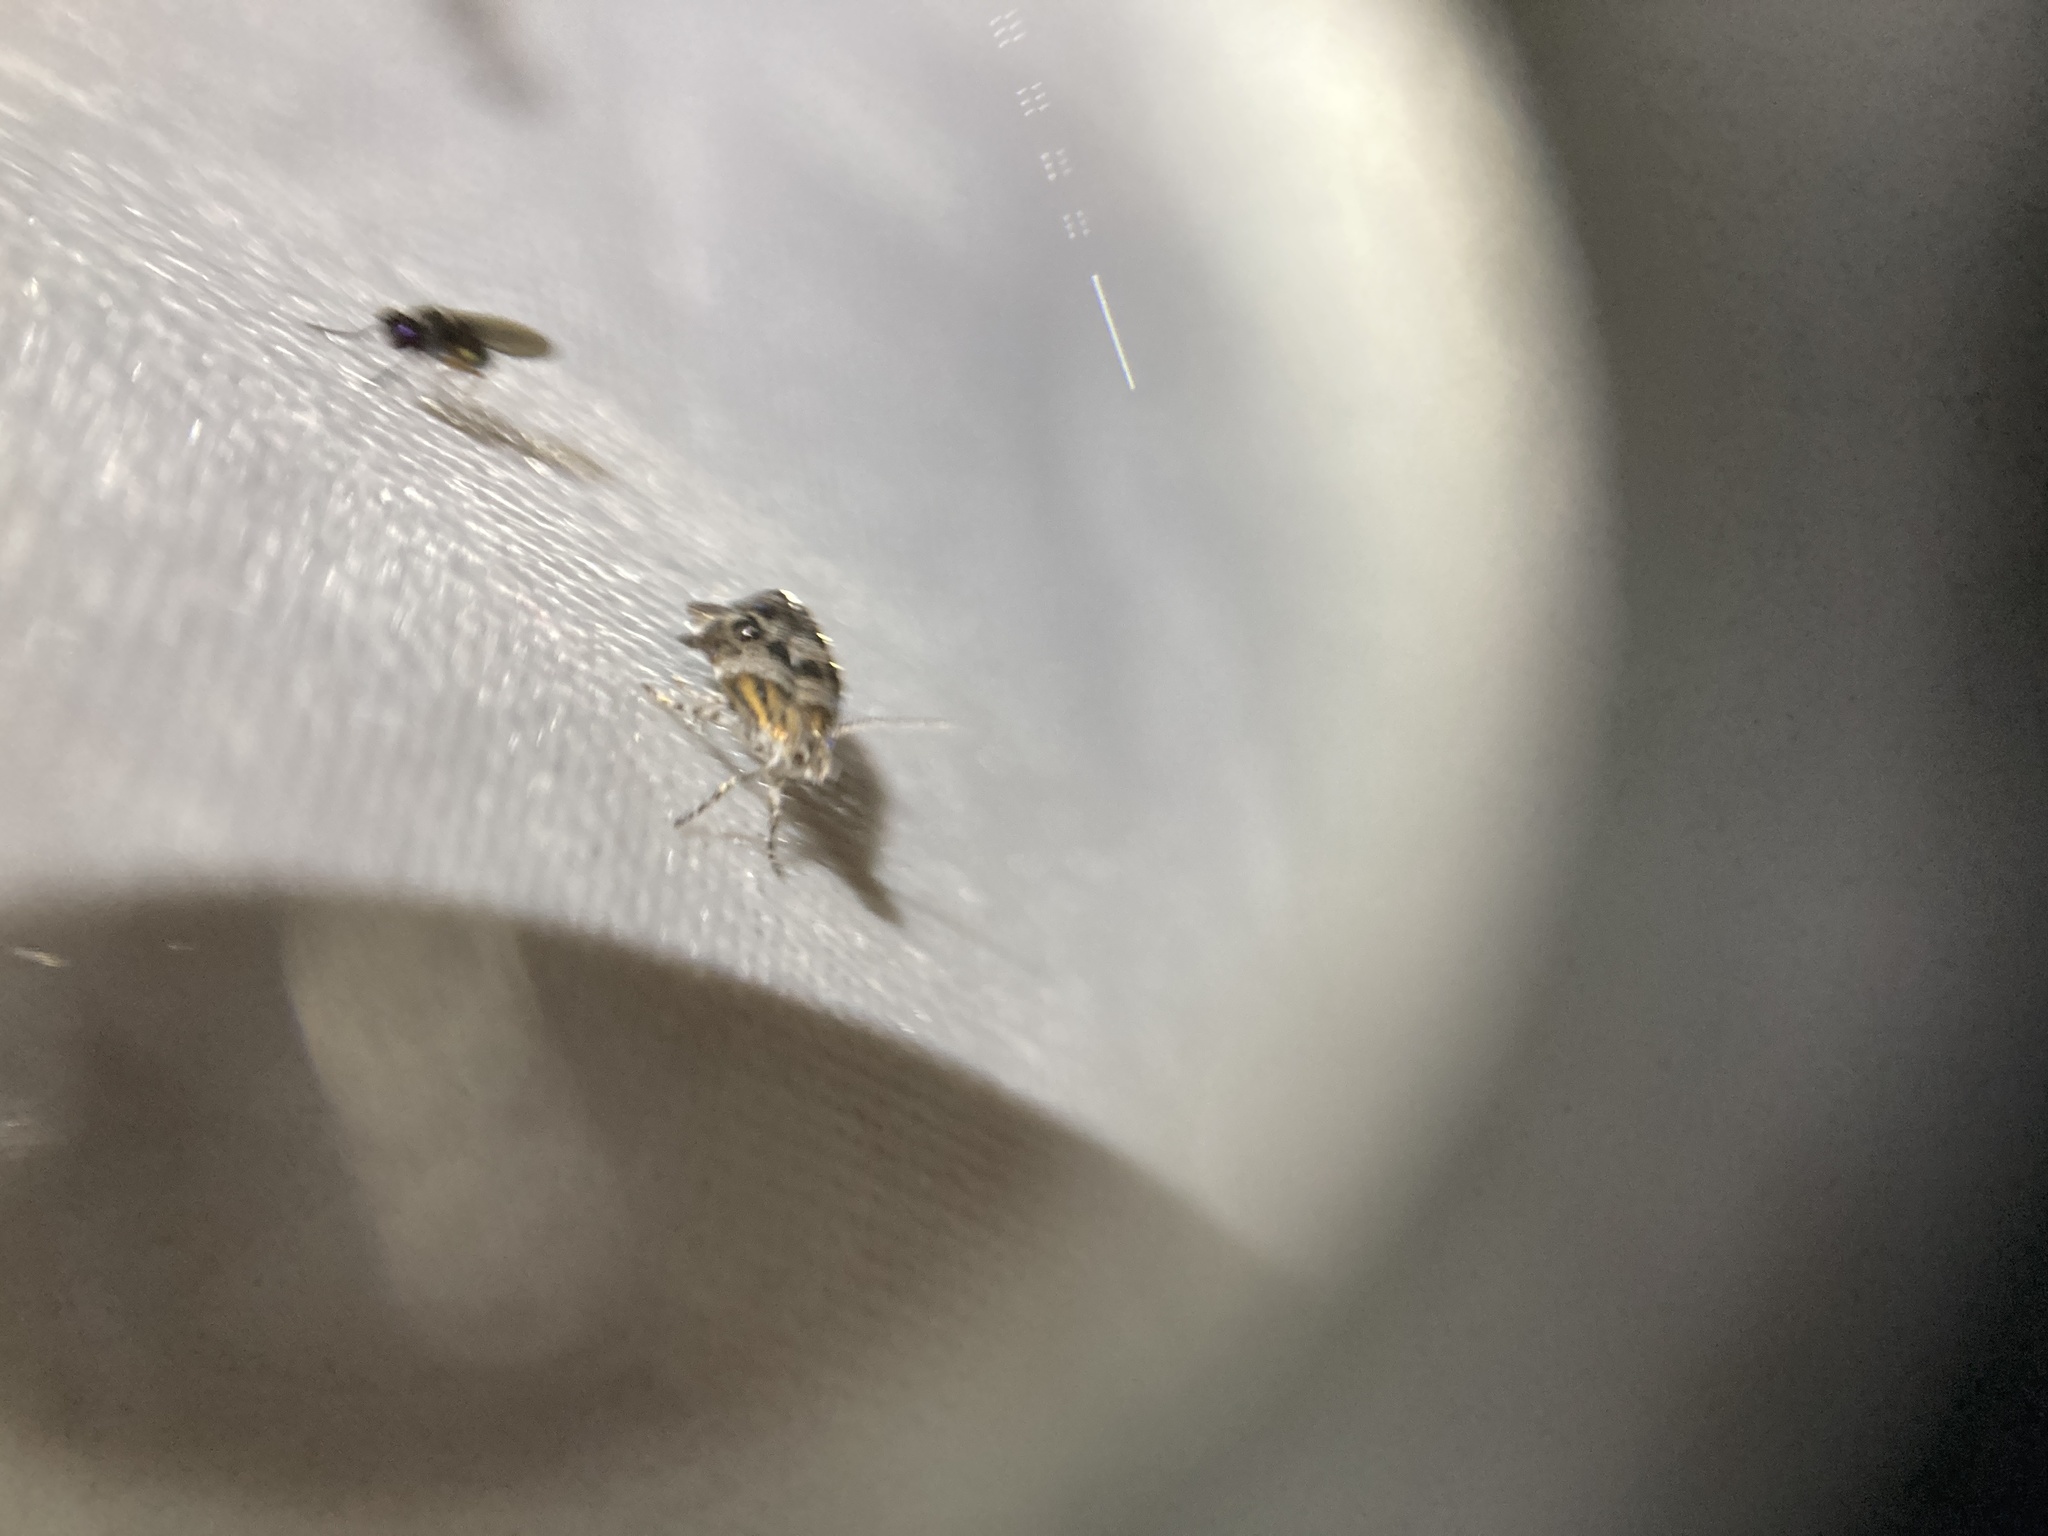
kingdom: Animalia
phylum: Arthropoda
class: Insecta
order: Lepidoptera
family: Choreutidae
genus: Tebenna
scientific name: Tebenna micalis
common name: Vagrant twitcher
